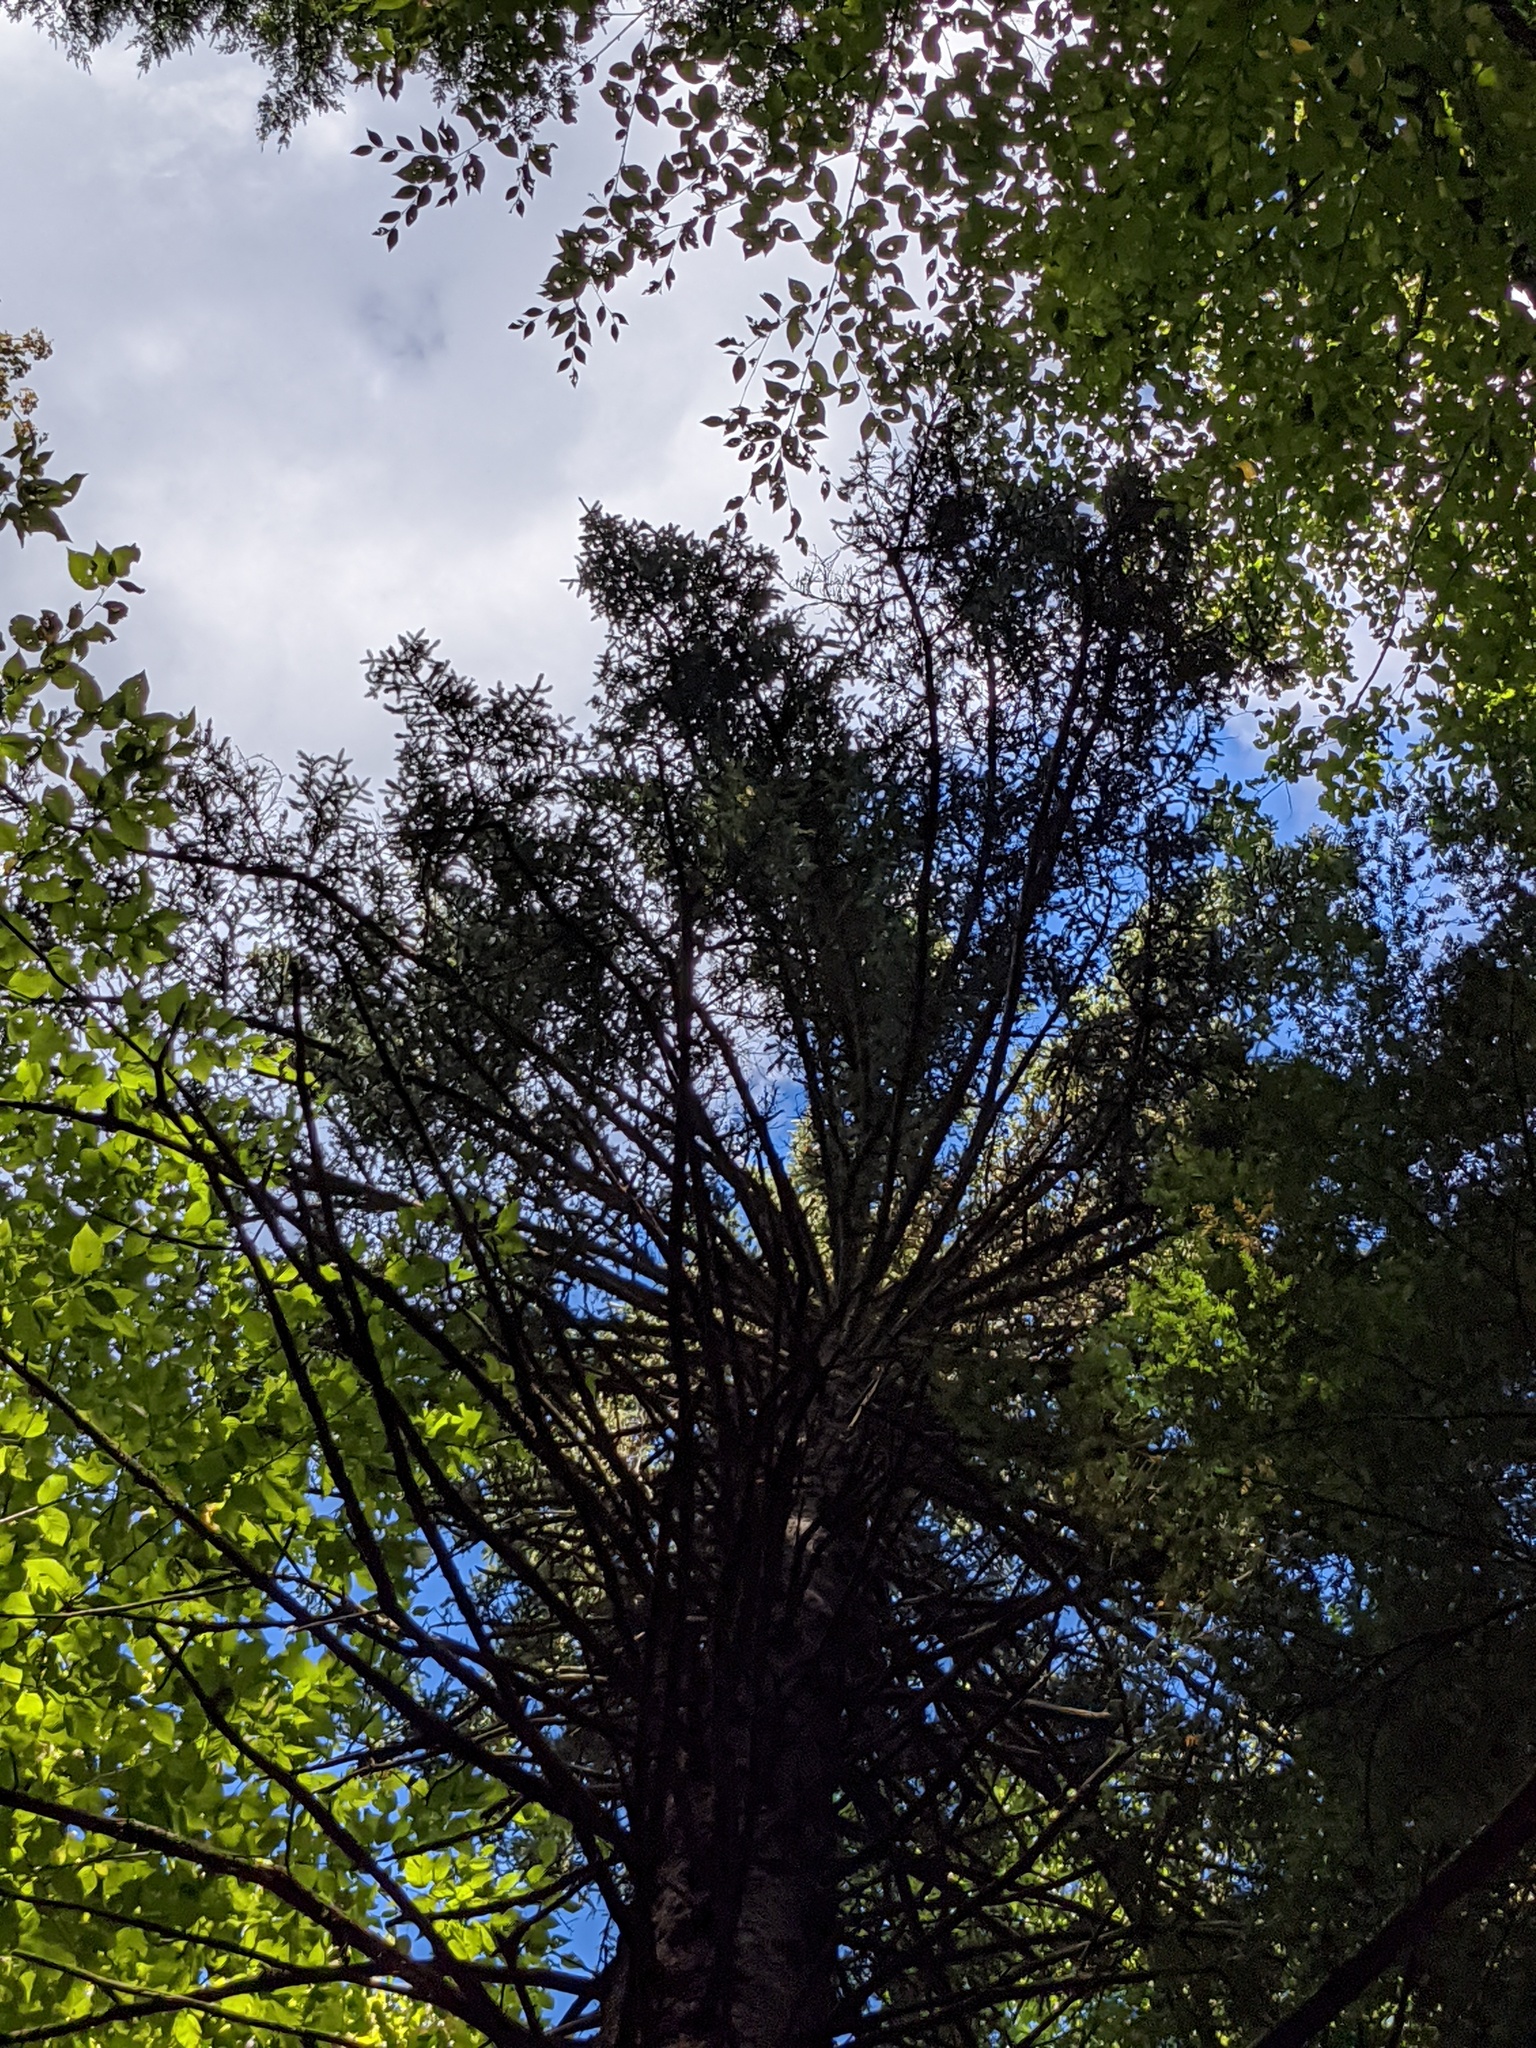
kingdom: Plantae
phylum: Tracheophyta
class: Pinopsida
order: Pinales
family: Pinaceae
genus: Picea
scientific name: Picea rubens
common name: Red spruce
